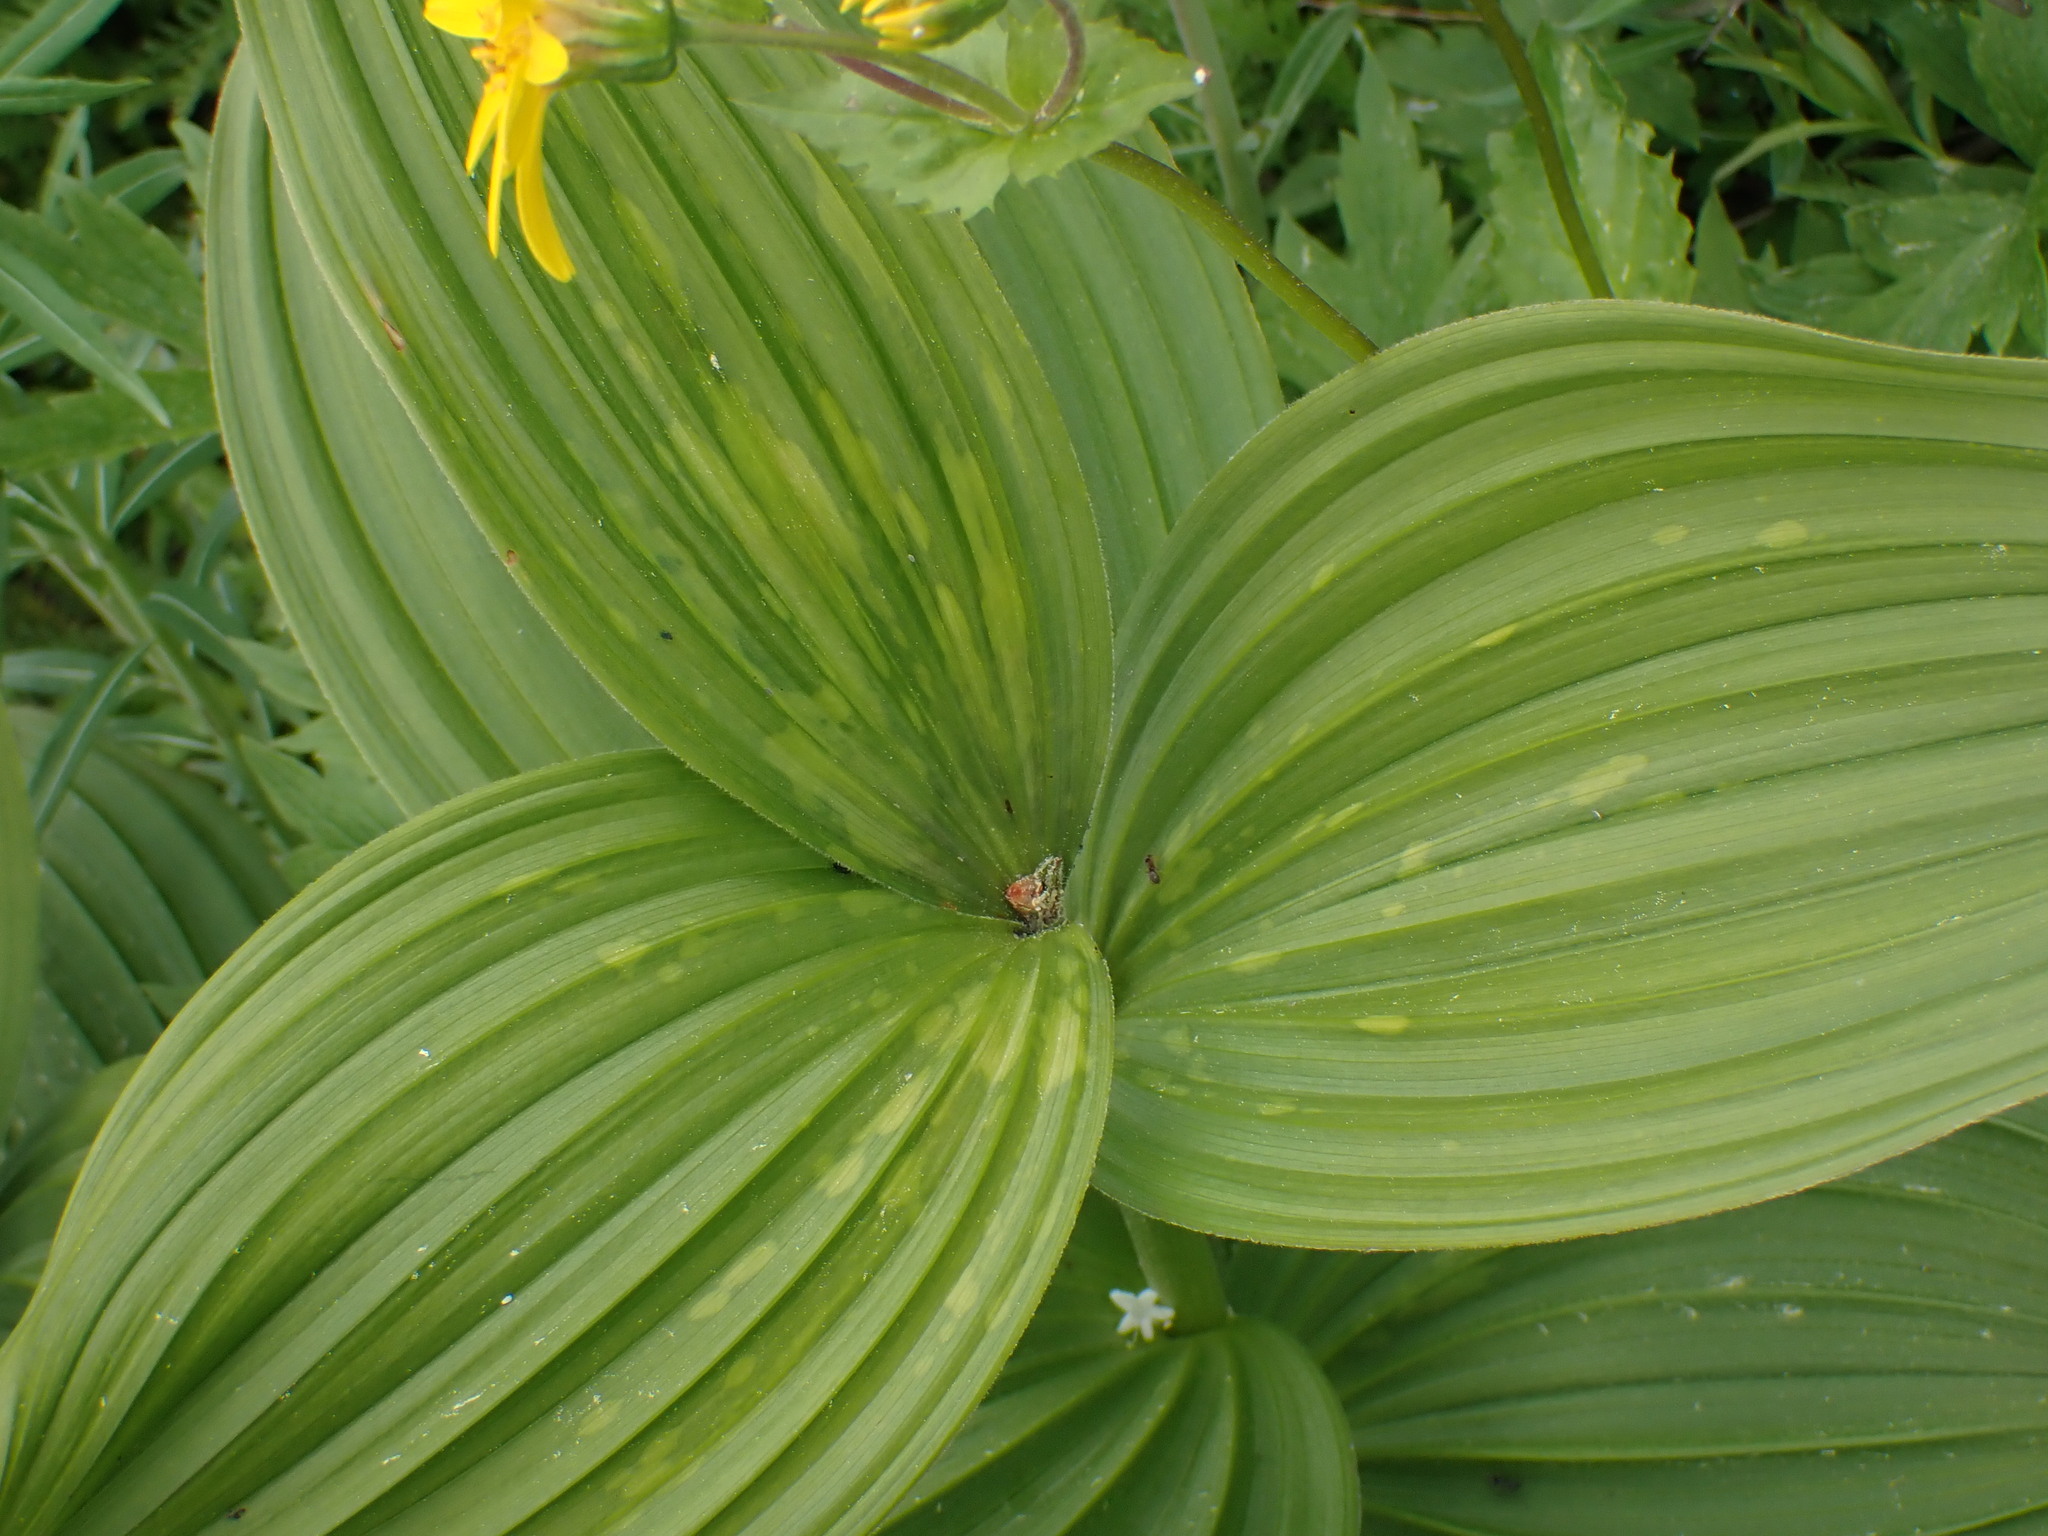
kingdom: Plantae
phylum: Tracheophyta
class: Liliopsida
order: Liliales
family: Melanthiaceae
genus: Veratrum
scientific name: Veratrum viride
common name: American false hellebore
